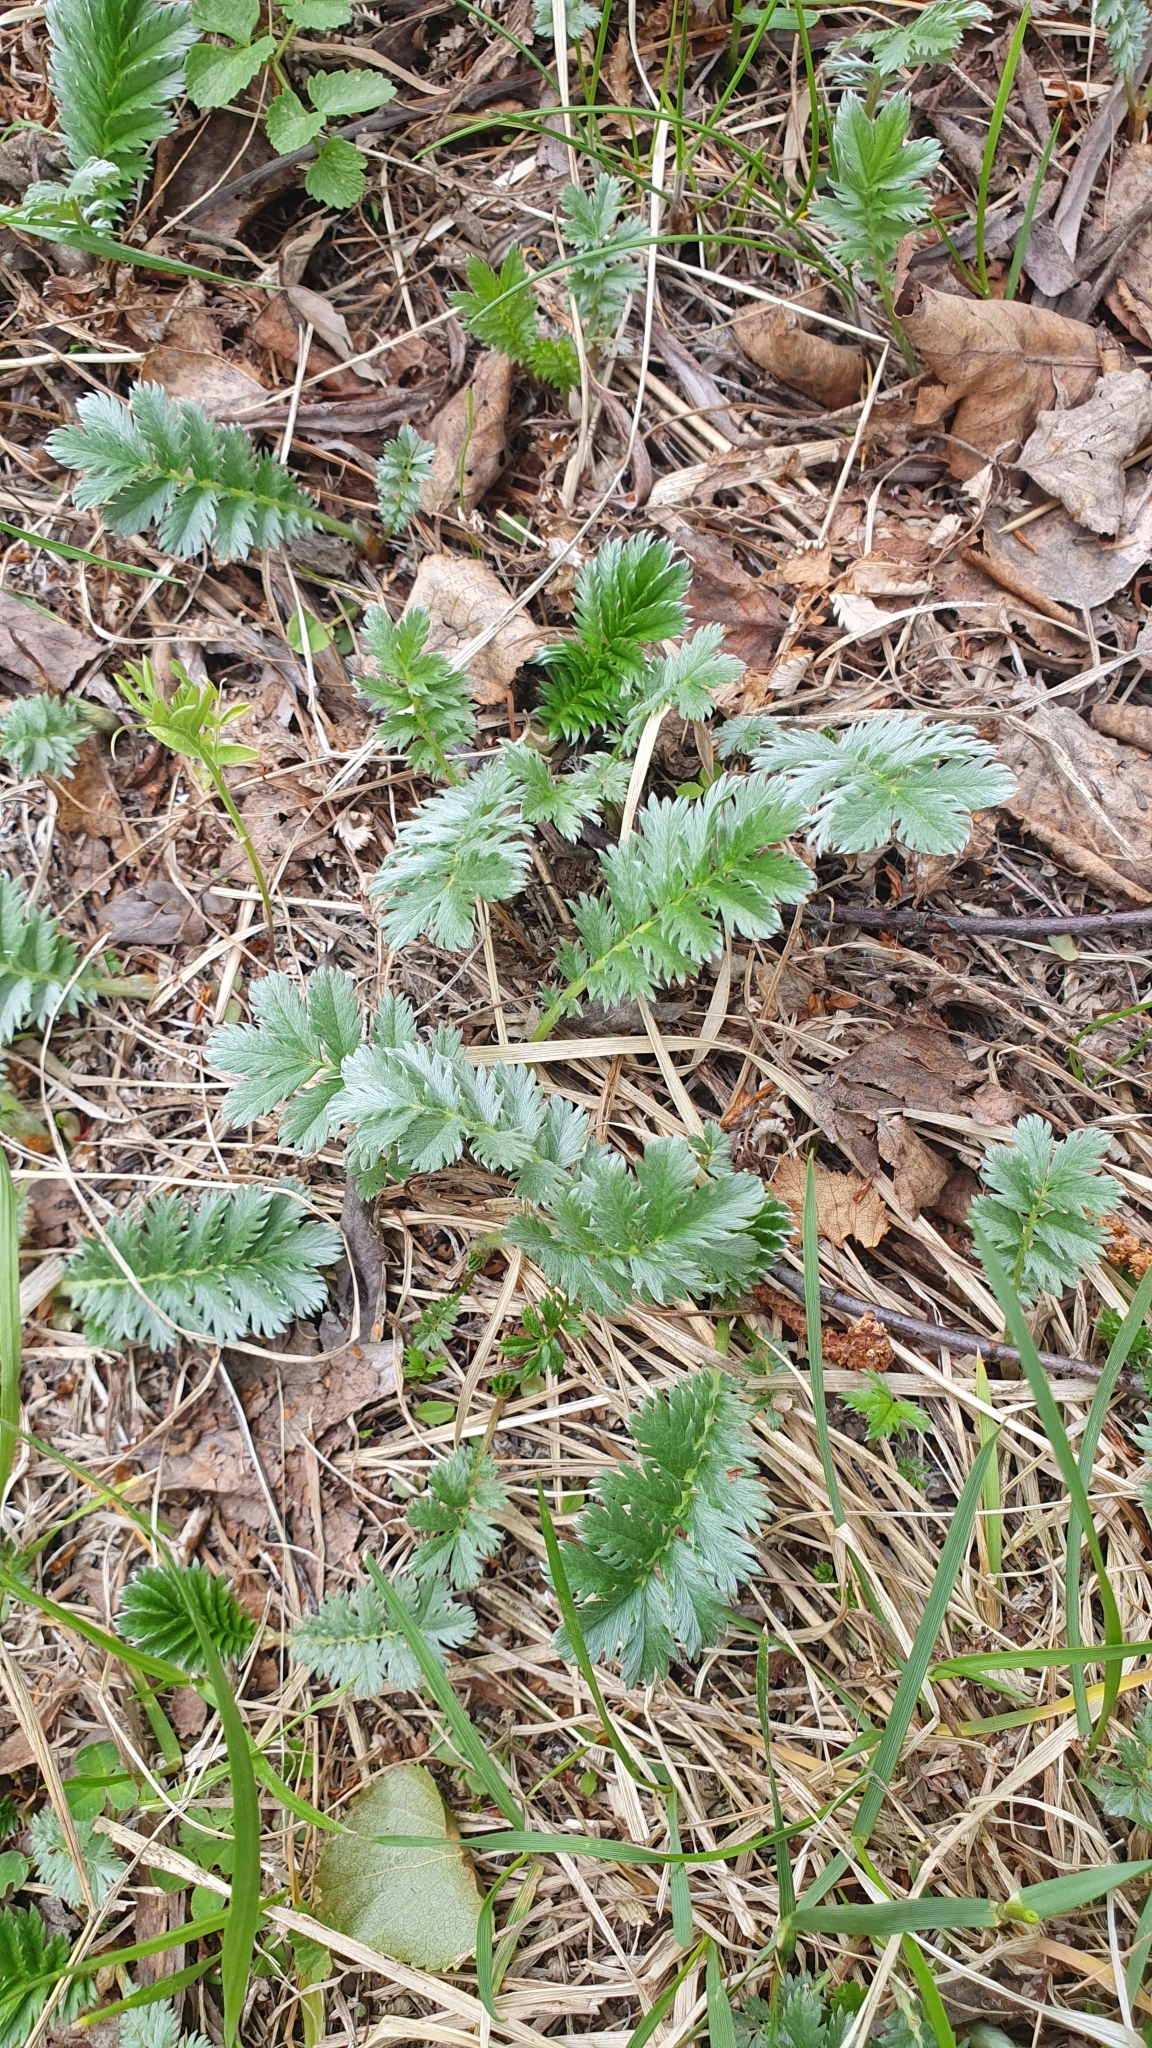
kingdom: Plantae
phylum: Tracheophyta
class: Magnoliopsida
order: Rosales
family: Rosaceae
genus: Argentina
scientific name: Argentina anserina
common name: Common silverweed
